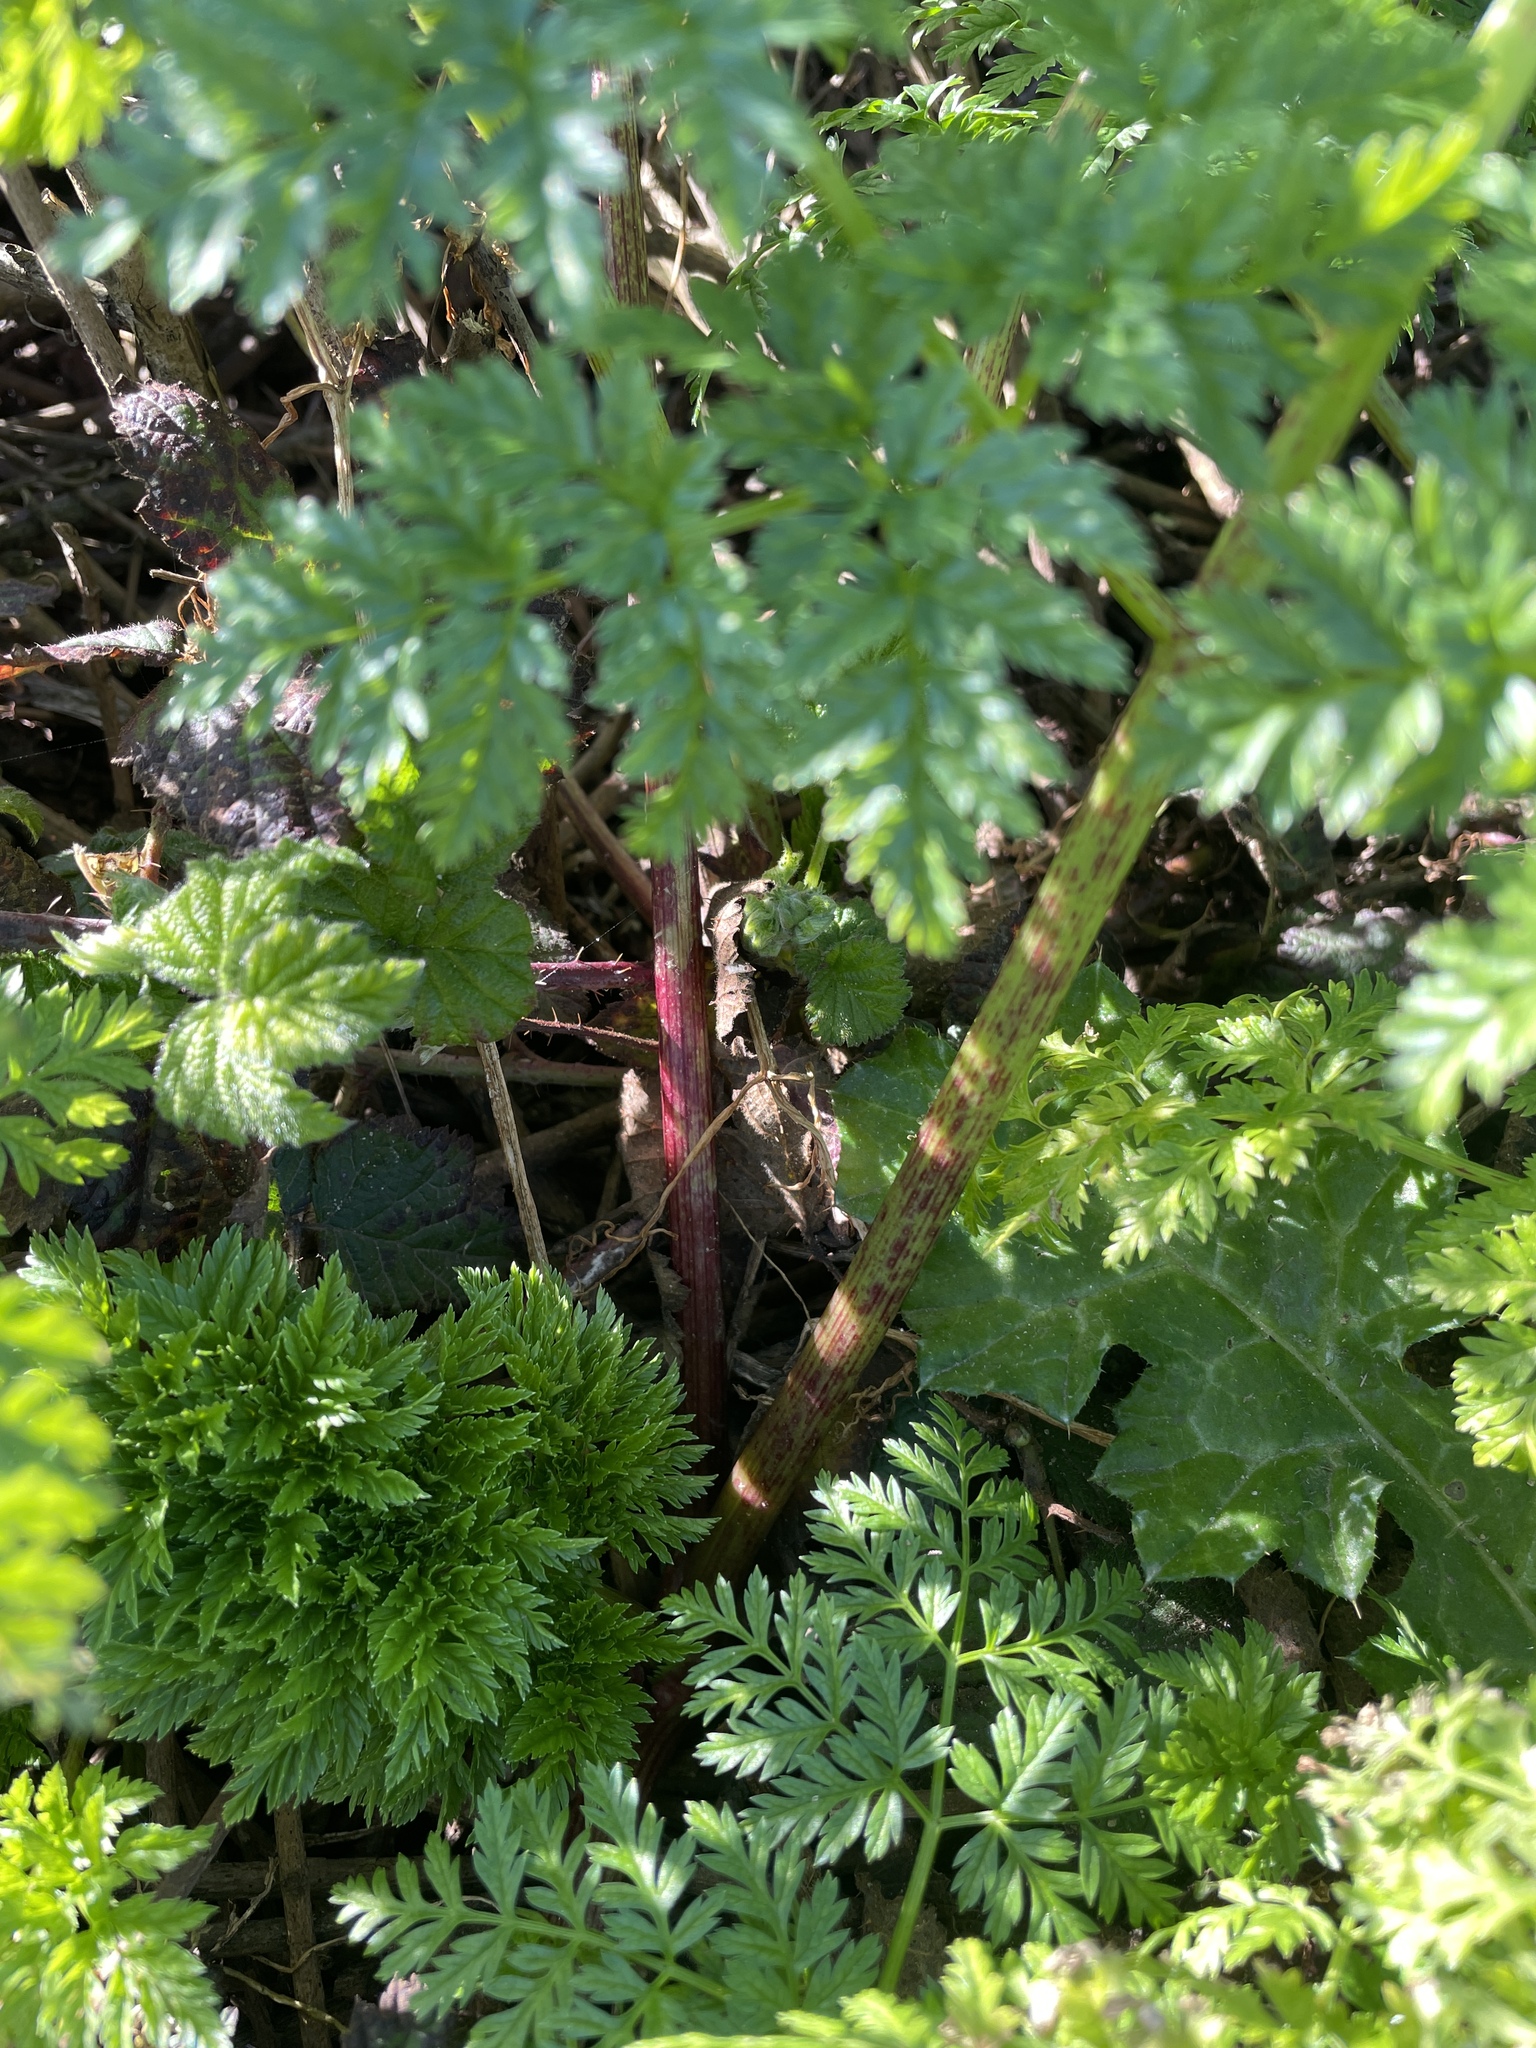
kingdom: Plantae
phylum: Tracheophyta
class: Magnoliopsida
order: Apiales
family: Apiaceae
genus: Conium
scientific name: Conium maculatum
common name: Hemlock
